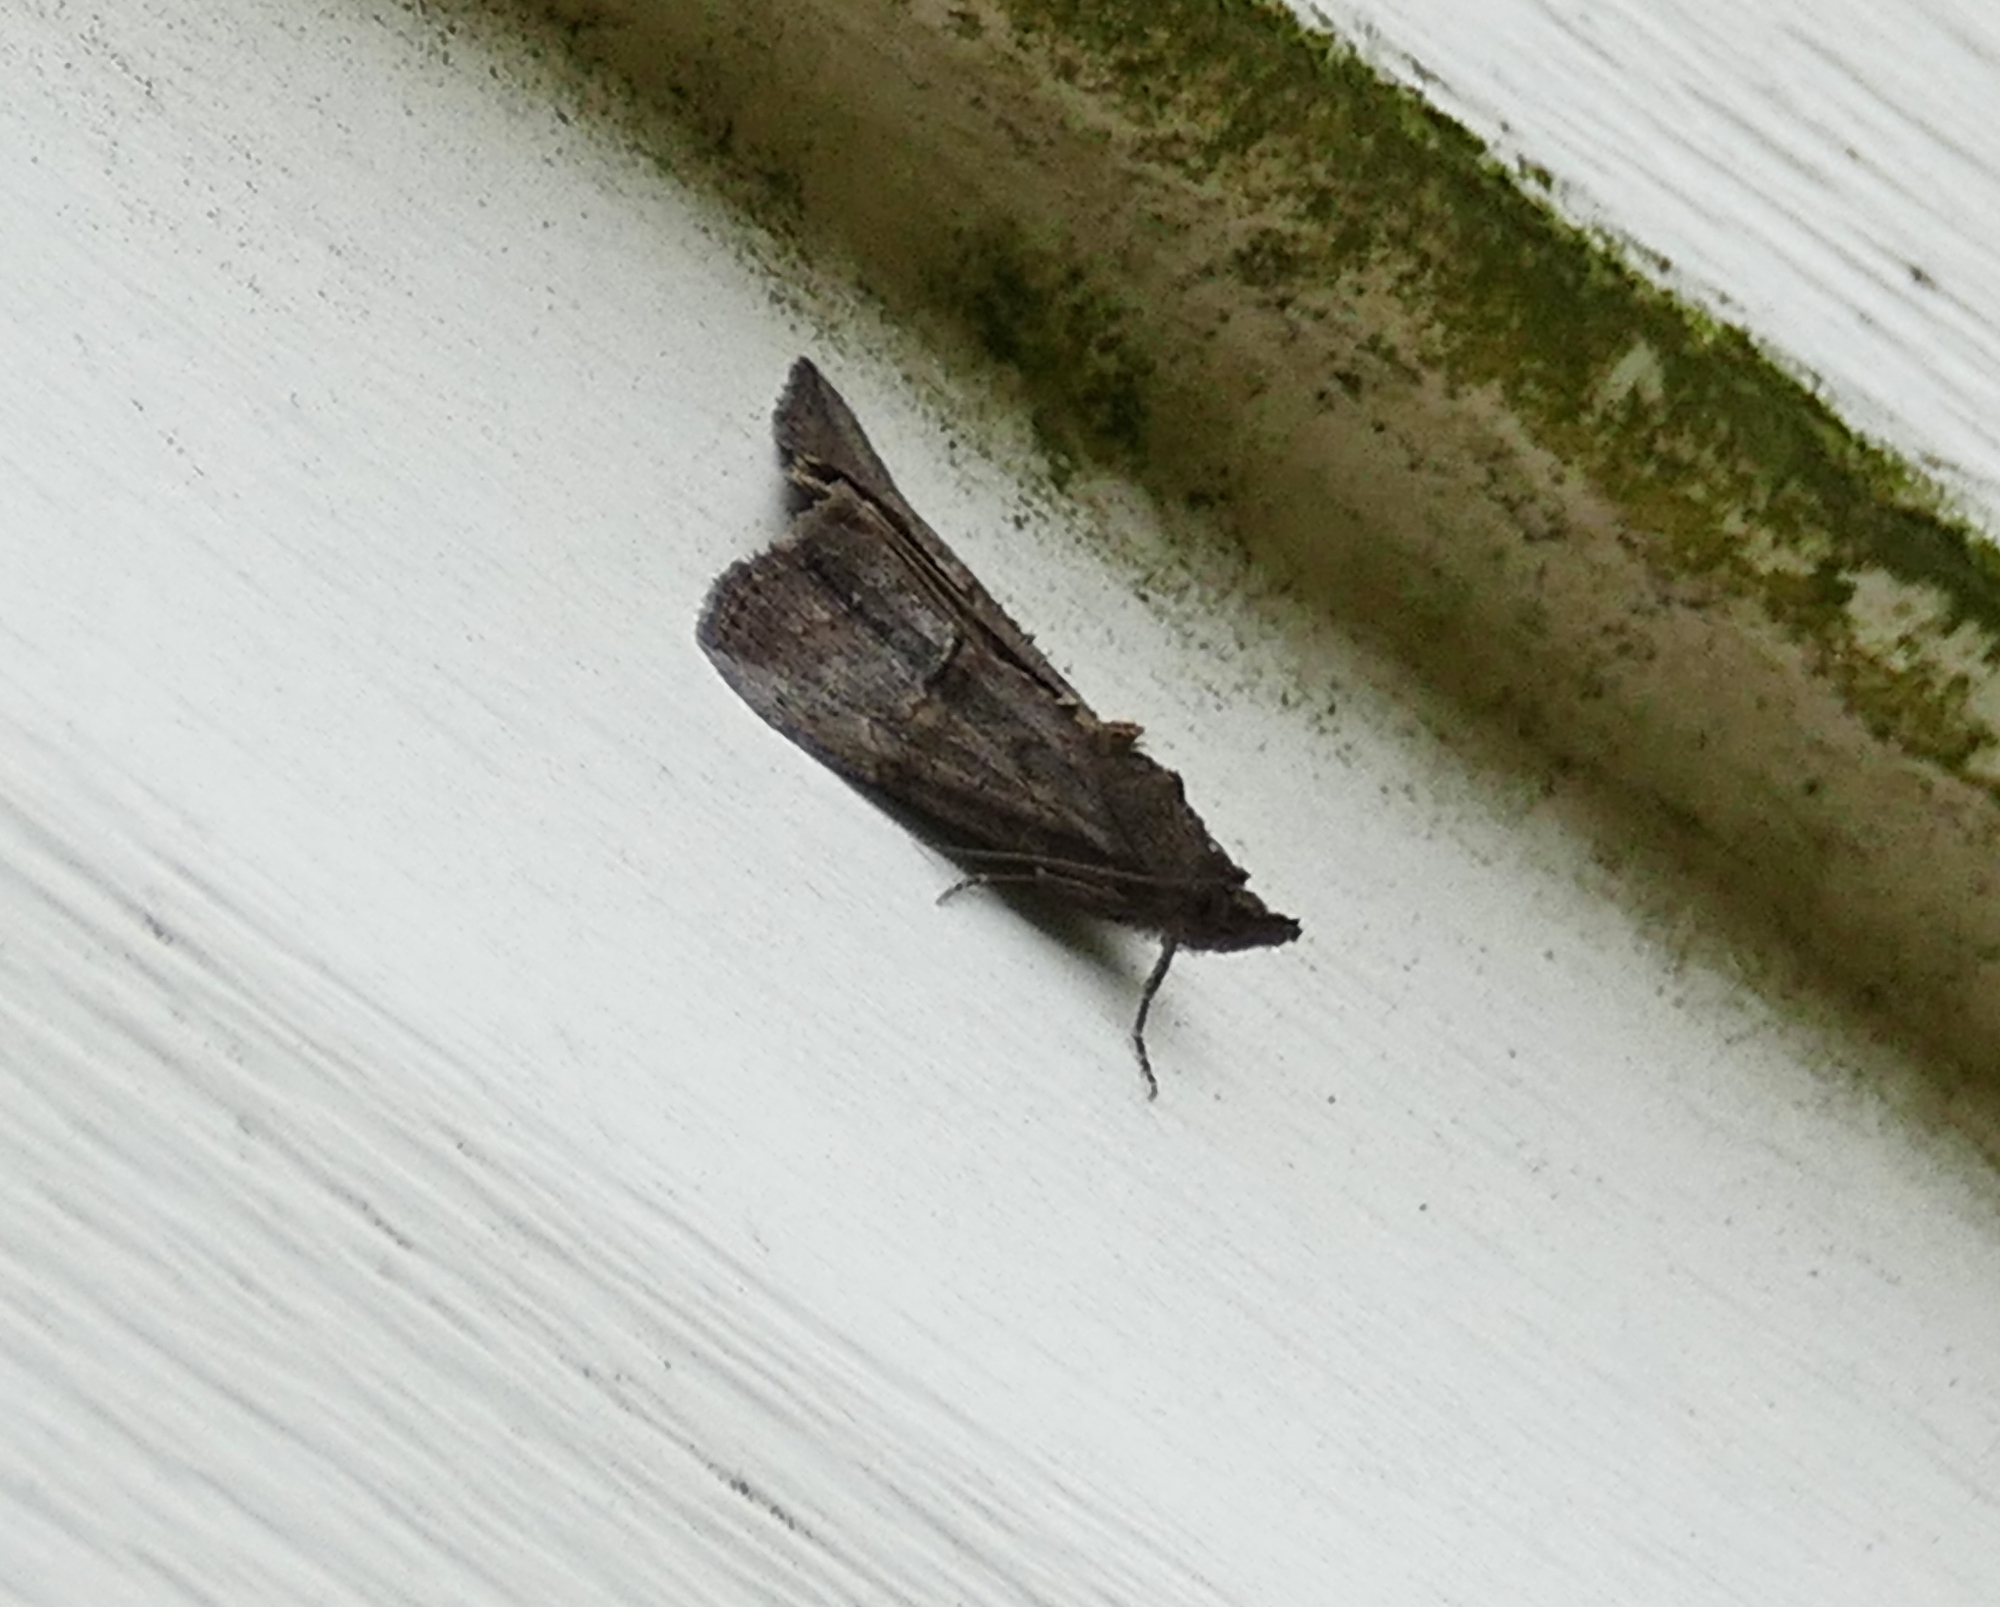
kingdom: Animalia
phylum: Arthropoda
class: Insecta
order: Lepidoptera
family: Erebidae
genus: Hypena
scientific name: Hypena scabra
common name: Green cloverworm
